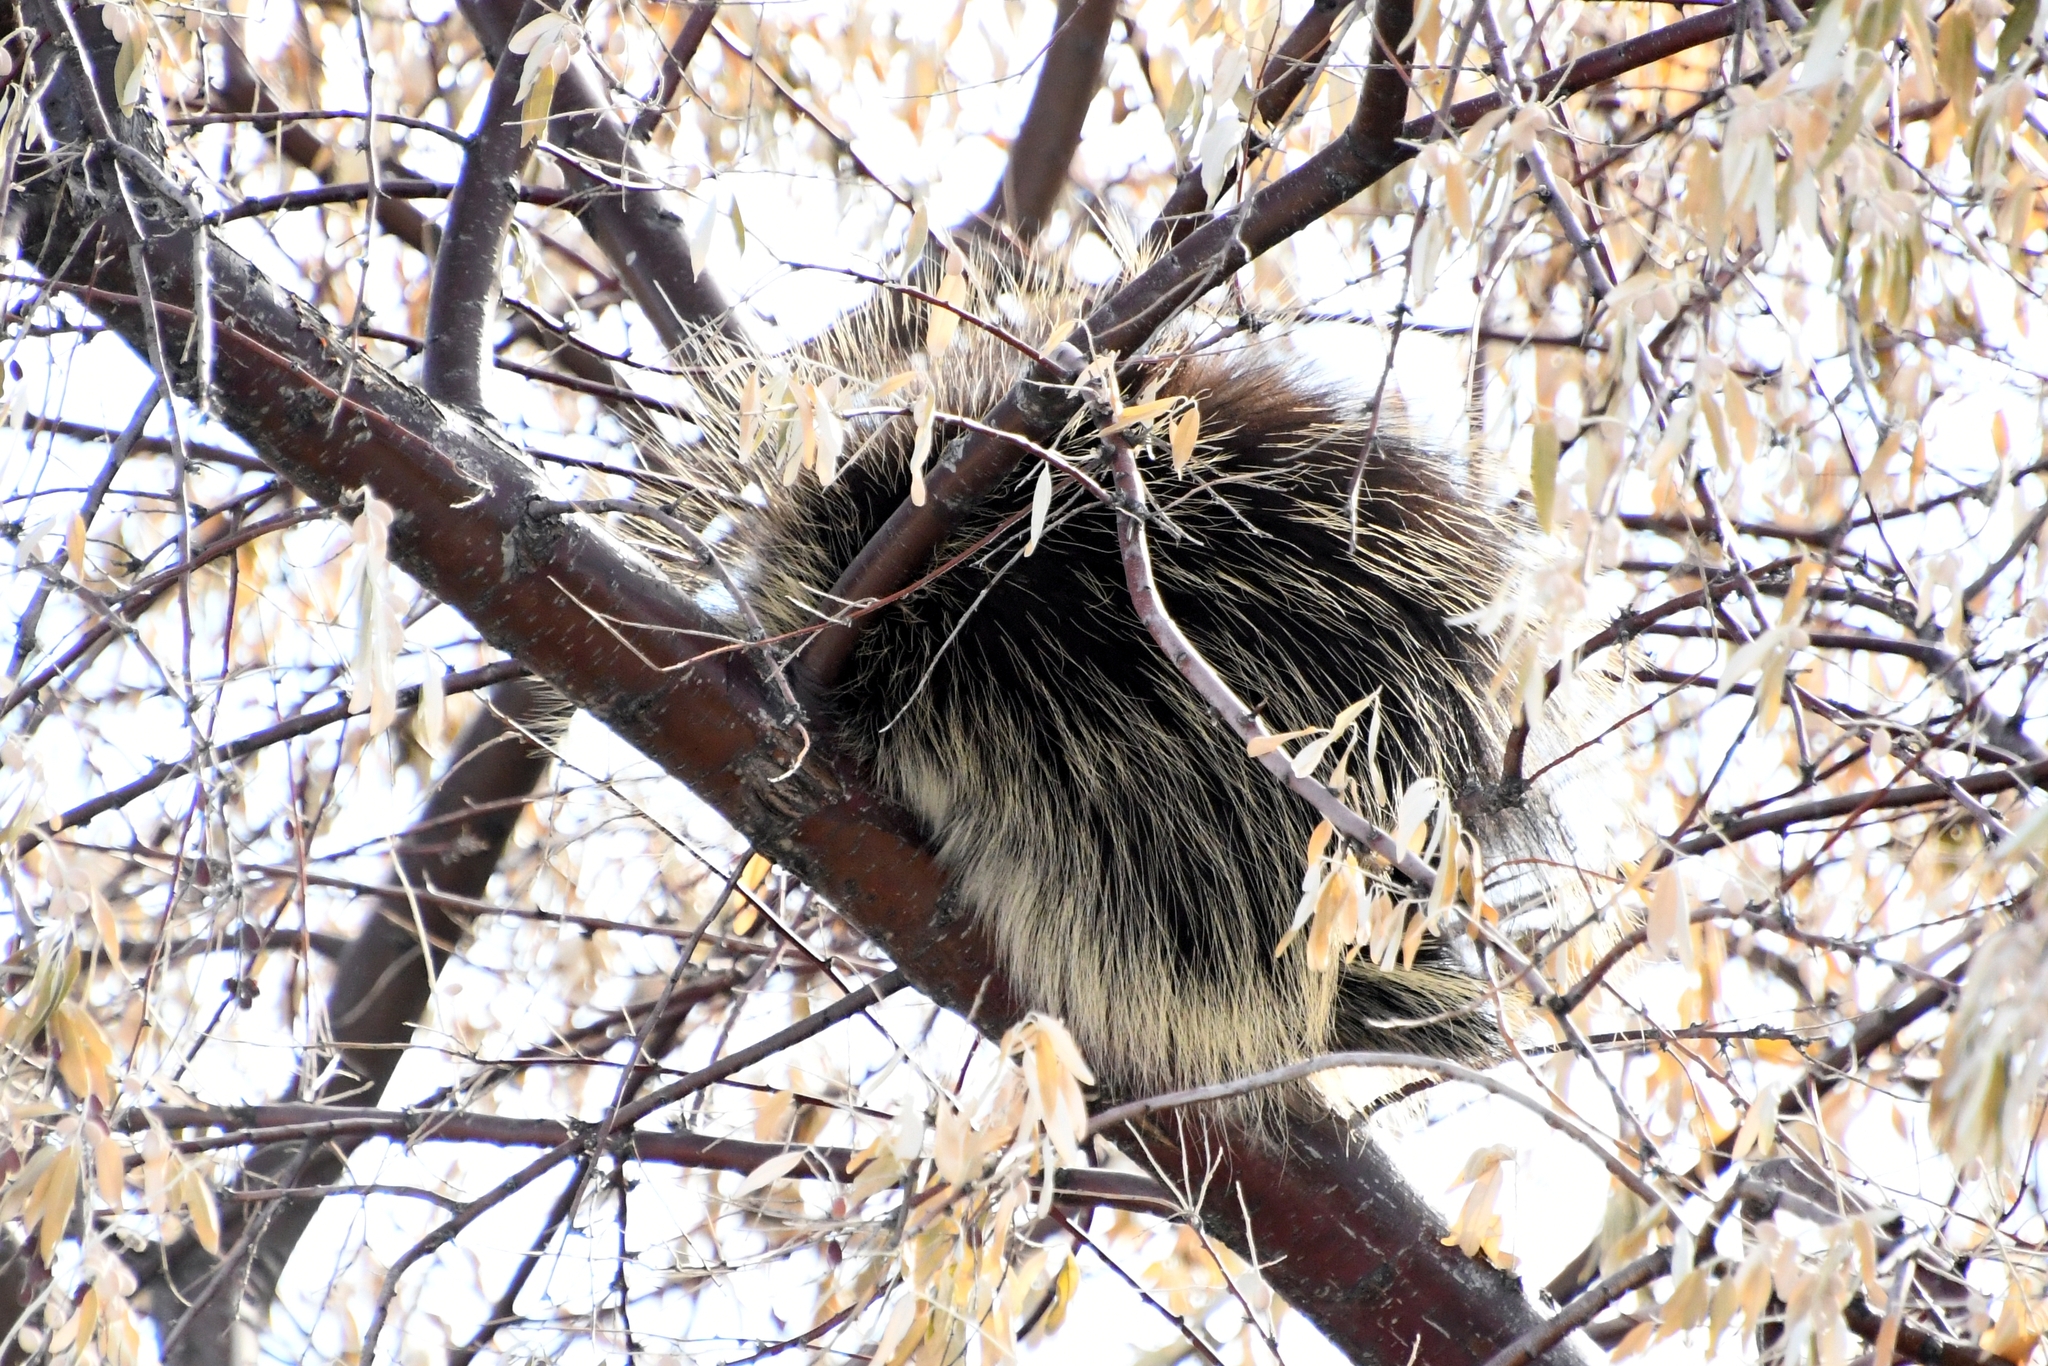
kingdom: Animalia
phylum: Chordata
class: Mammalia
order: Rodentia
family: Erethizontidae
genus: Erethizon
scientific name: Erethizon dorsatus
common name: North american porcupine
